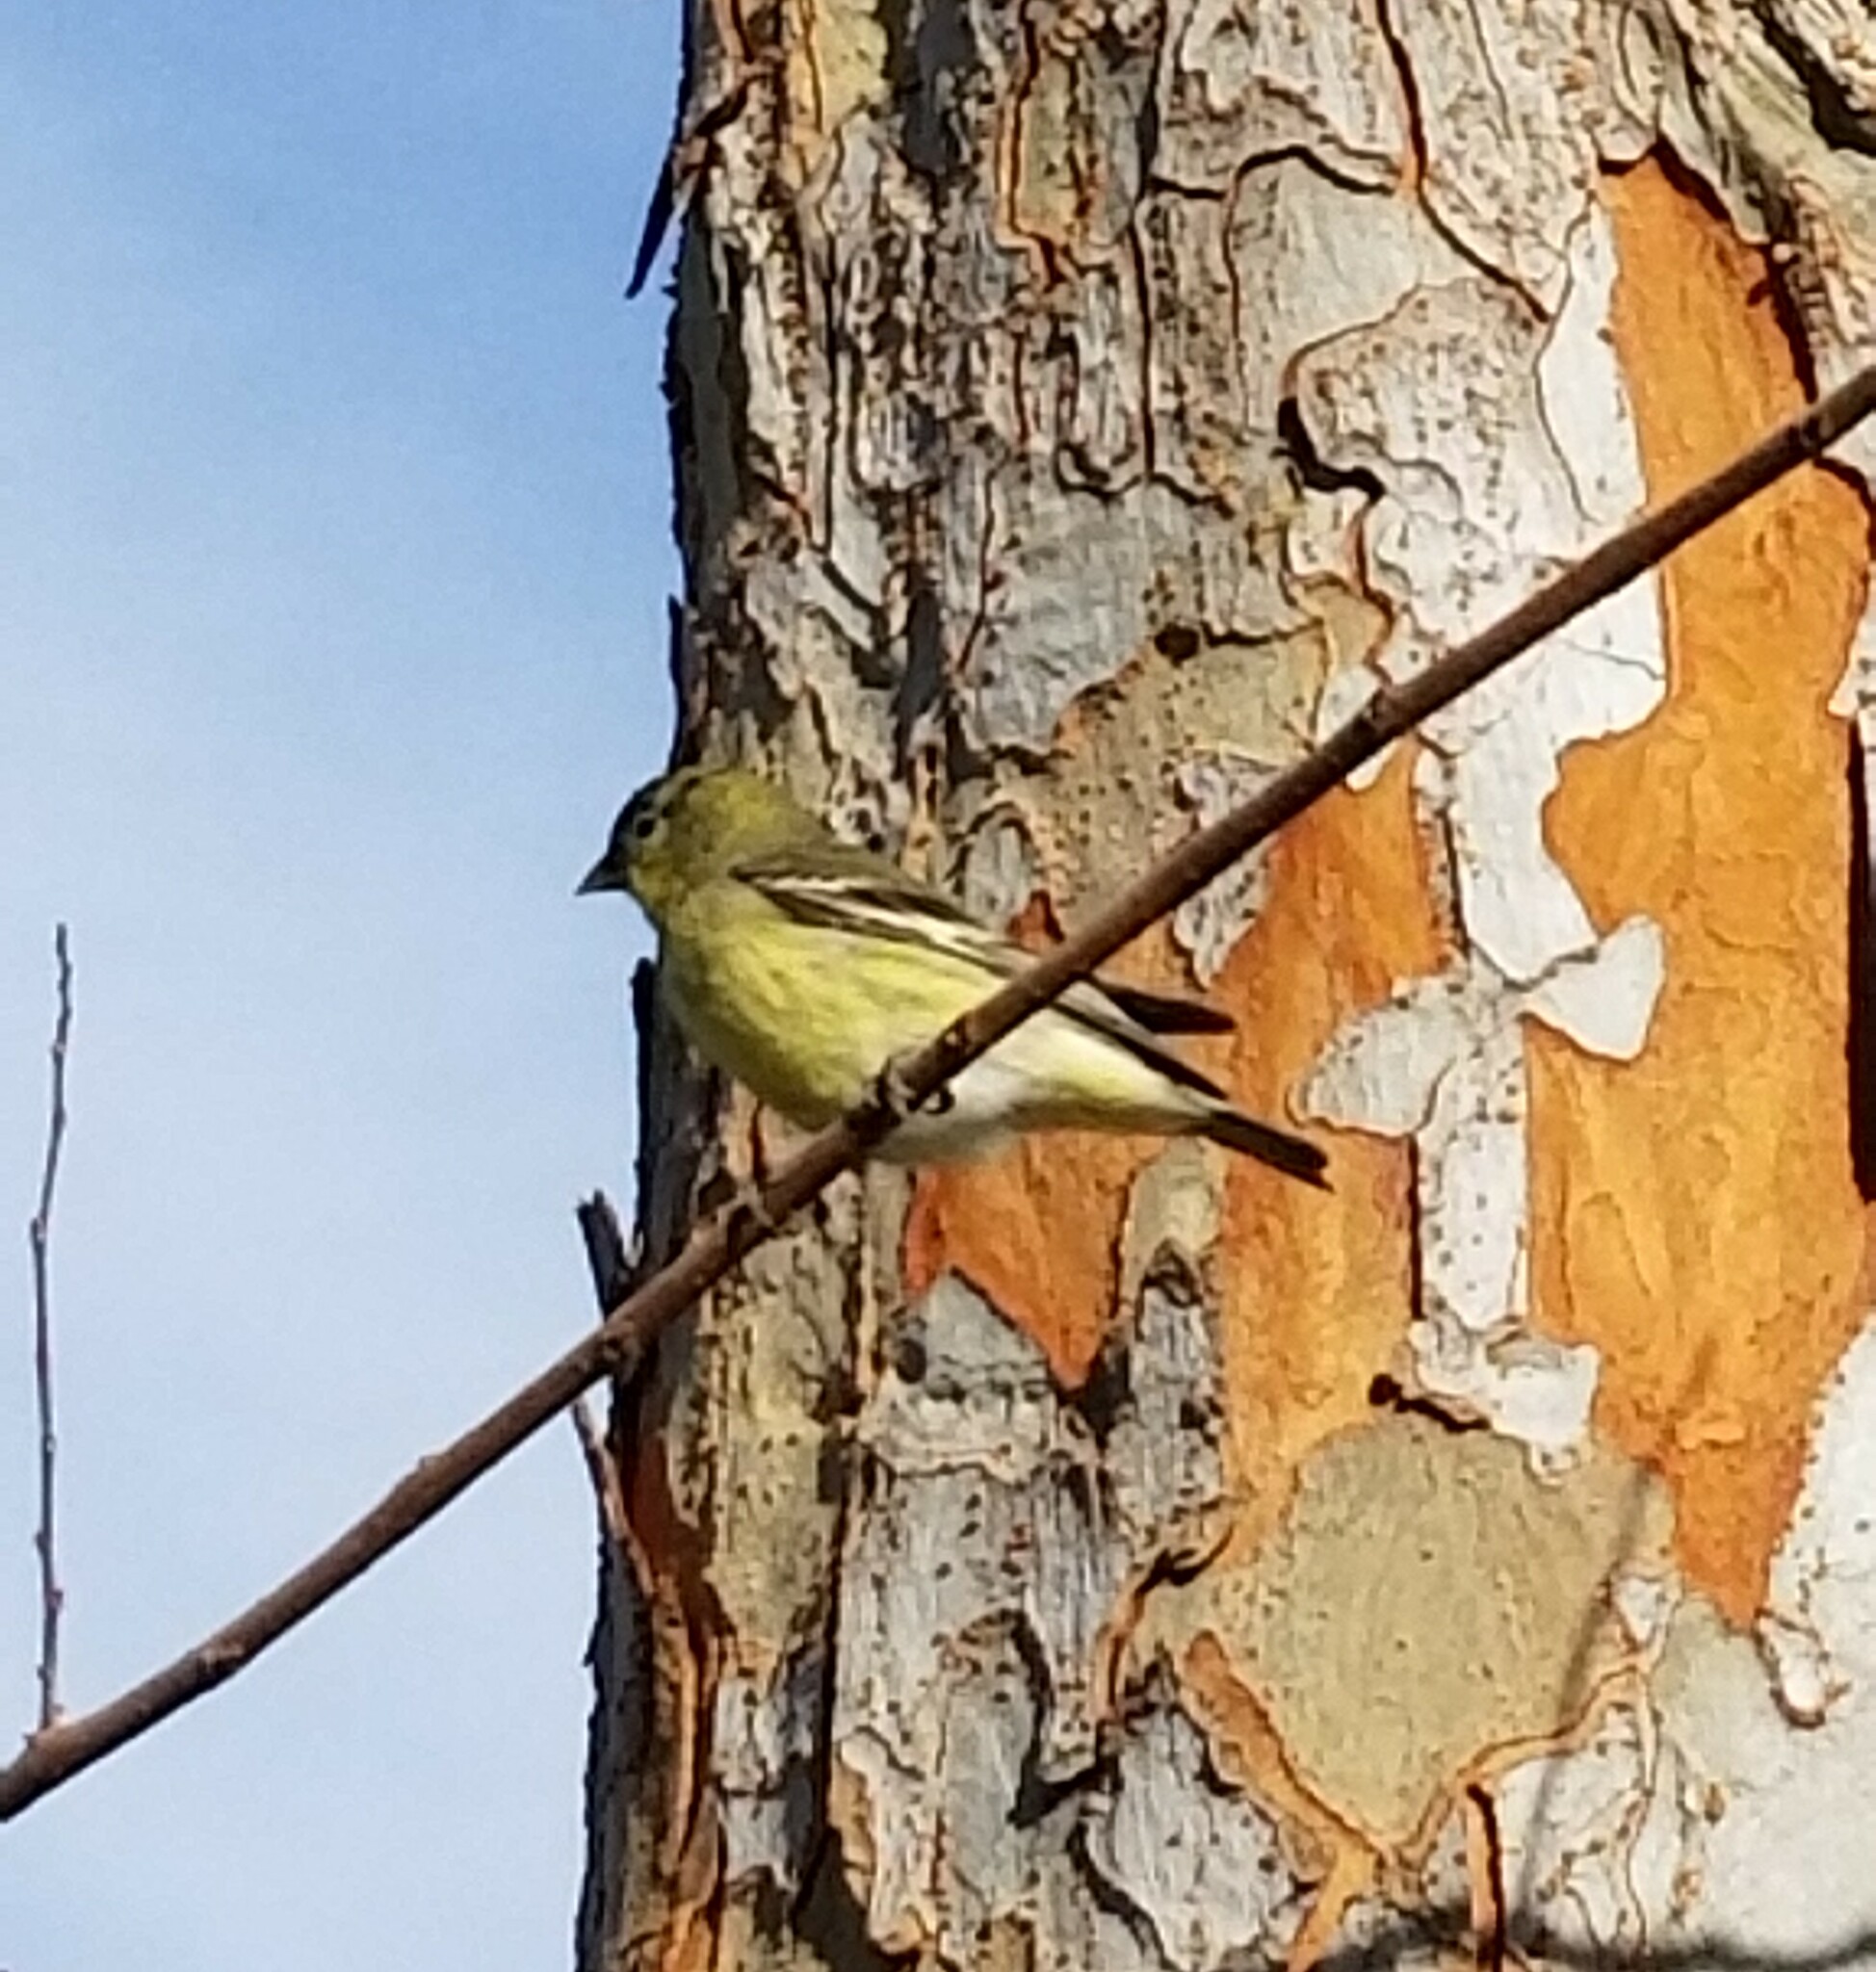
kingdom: Animalia
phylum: Chordata
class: Aves
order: Passeriformes
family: Fringillidae
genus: Spinus
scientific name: Spinus psaltria
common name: Lesser goldfinch
